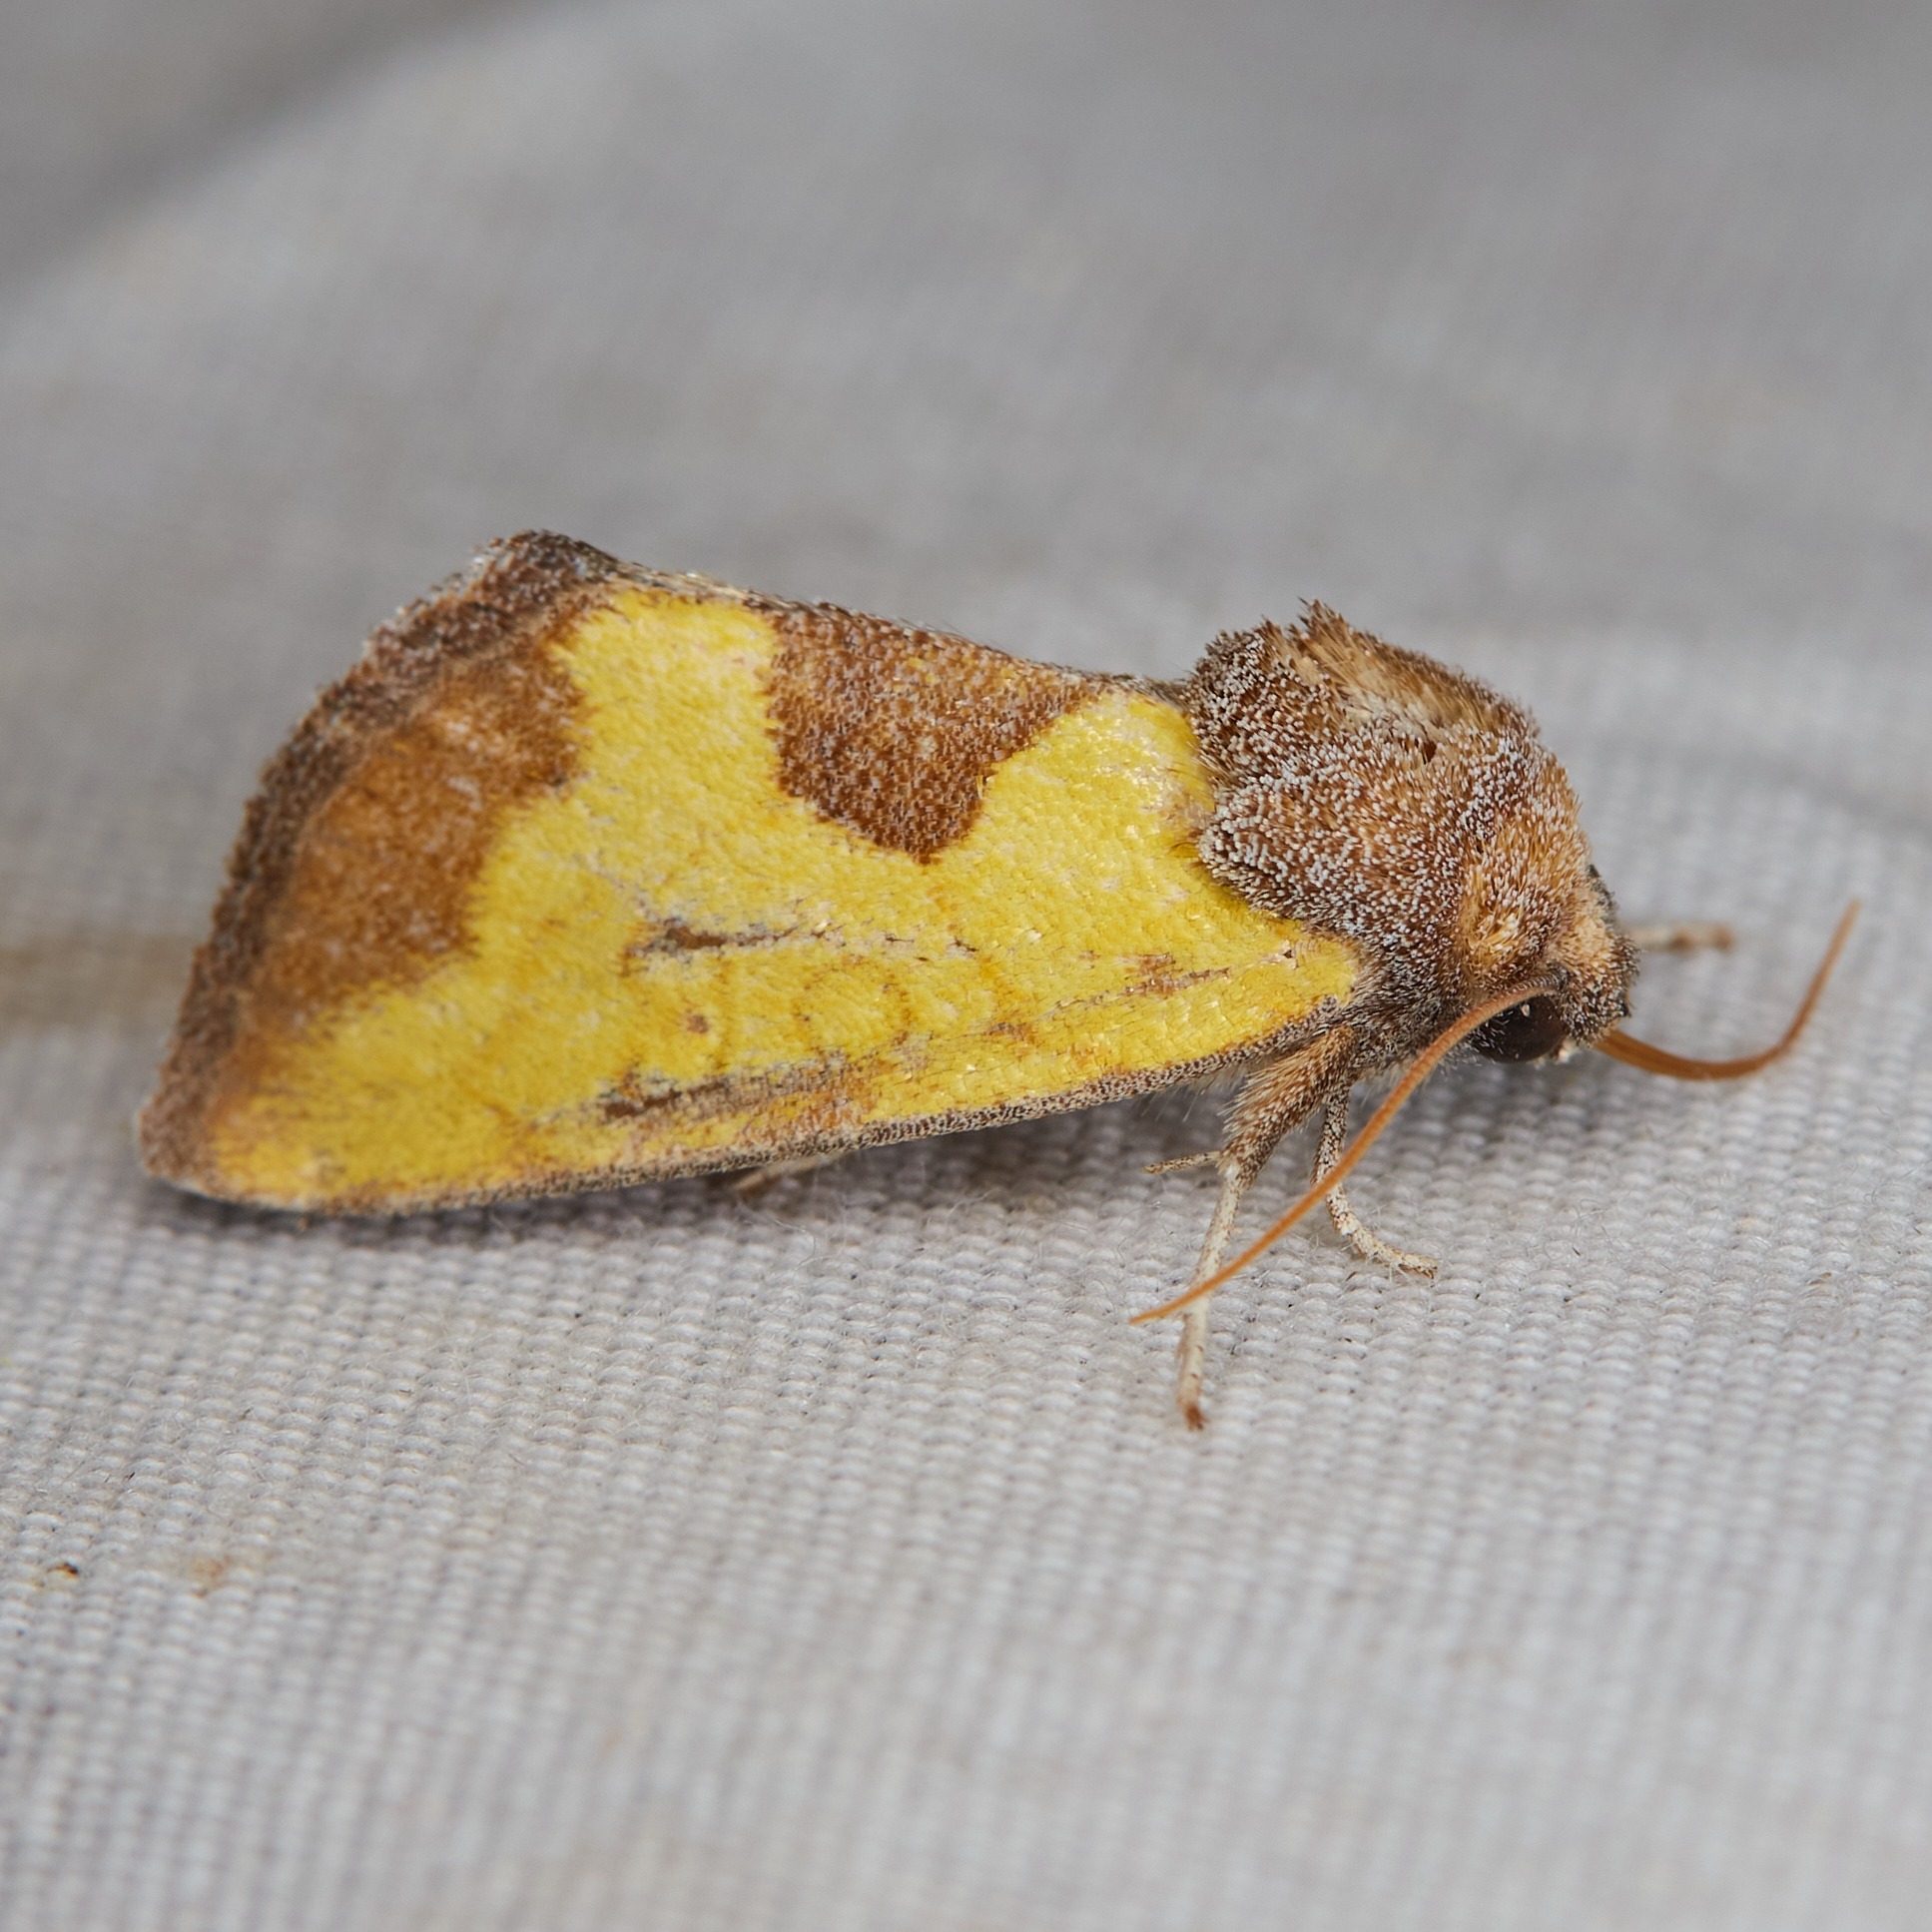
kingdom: Animalia
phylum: Arthropoda
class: Insecta
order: Lepidoptera
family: Noctuidae
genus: Stiria
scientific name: Stiria dyari
